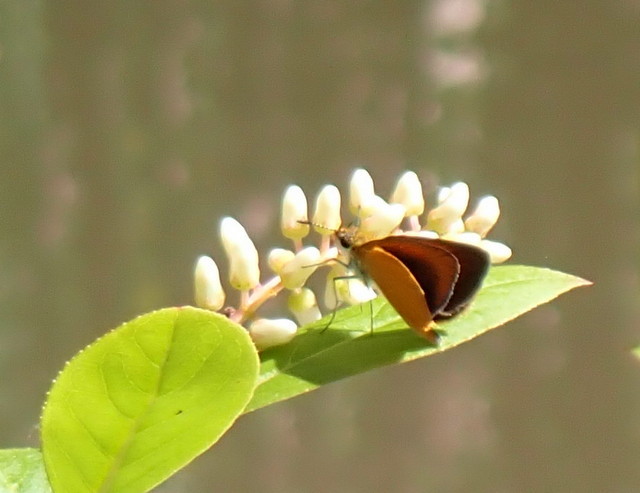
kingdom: Animalia
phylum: Arthropoda
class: Insecta
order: Lepidoptera
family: Hesperiidae
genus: Ancyloxypha
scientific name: Ancyloxypha numitor
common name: Least skipper
